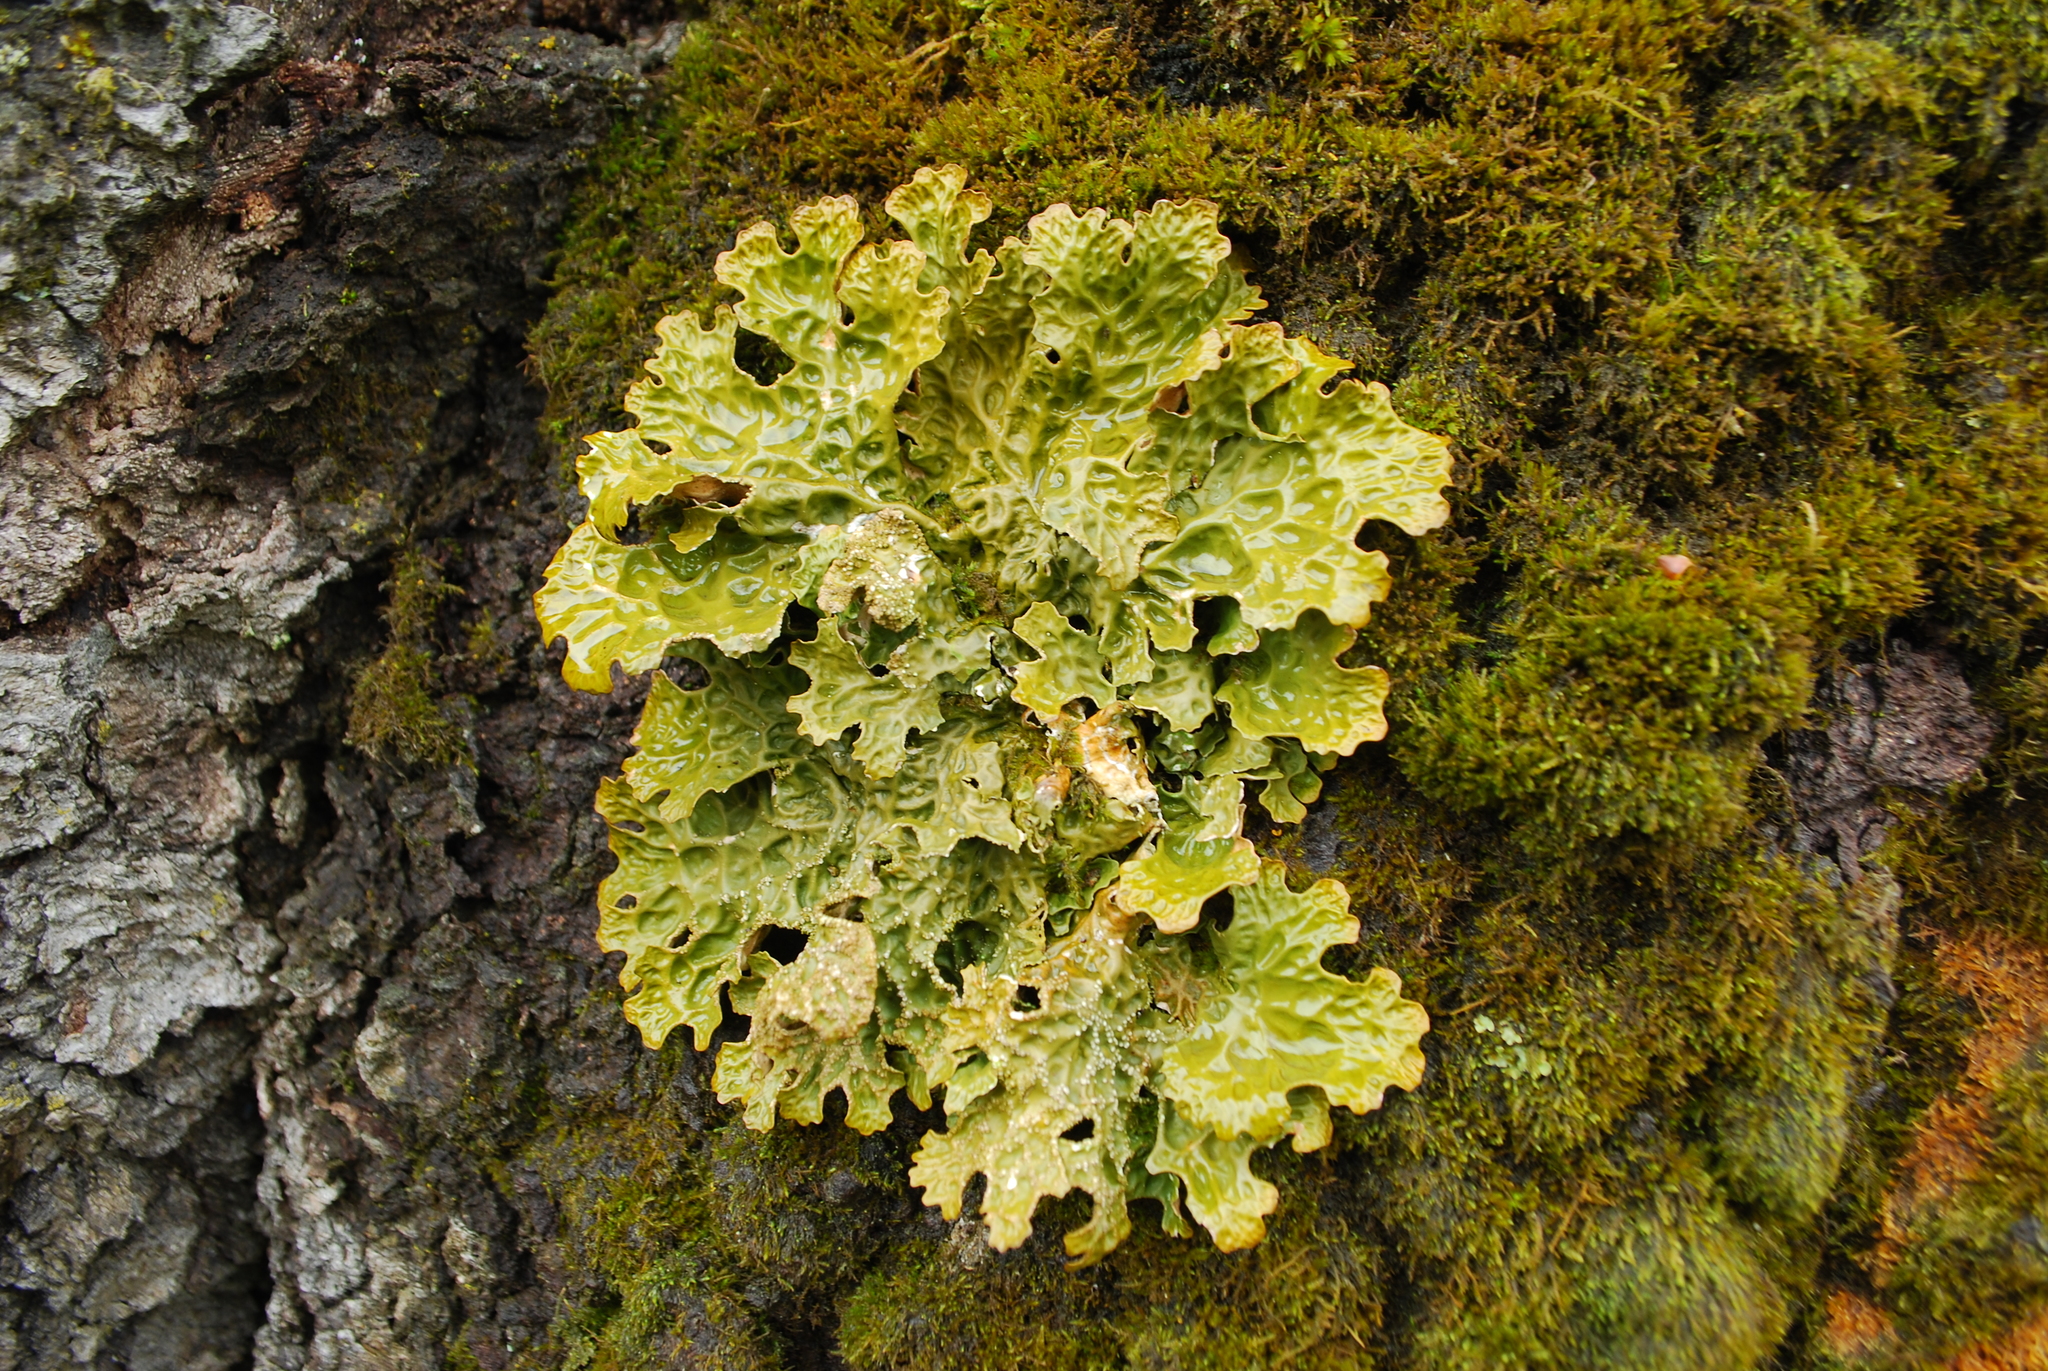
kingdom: Fungi
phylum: Ascomycota
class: Lecanoromycetes
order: Peltigerales
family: Lobariaceae
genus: Lobaria
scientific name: Lobaria pulmonaria
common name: Lungwort
